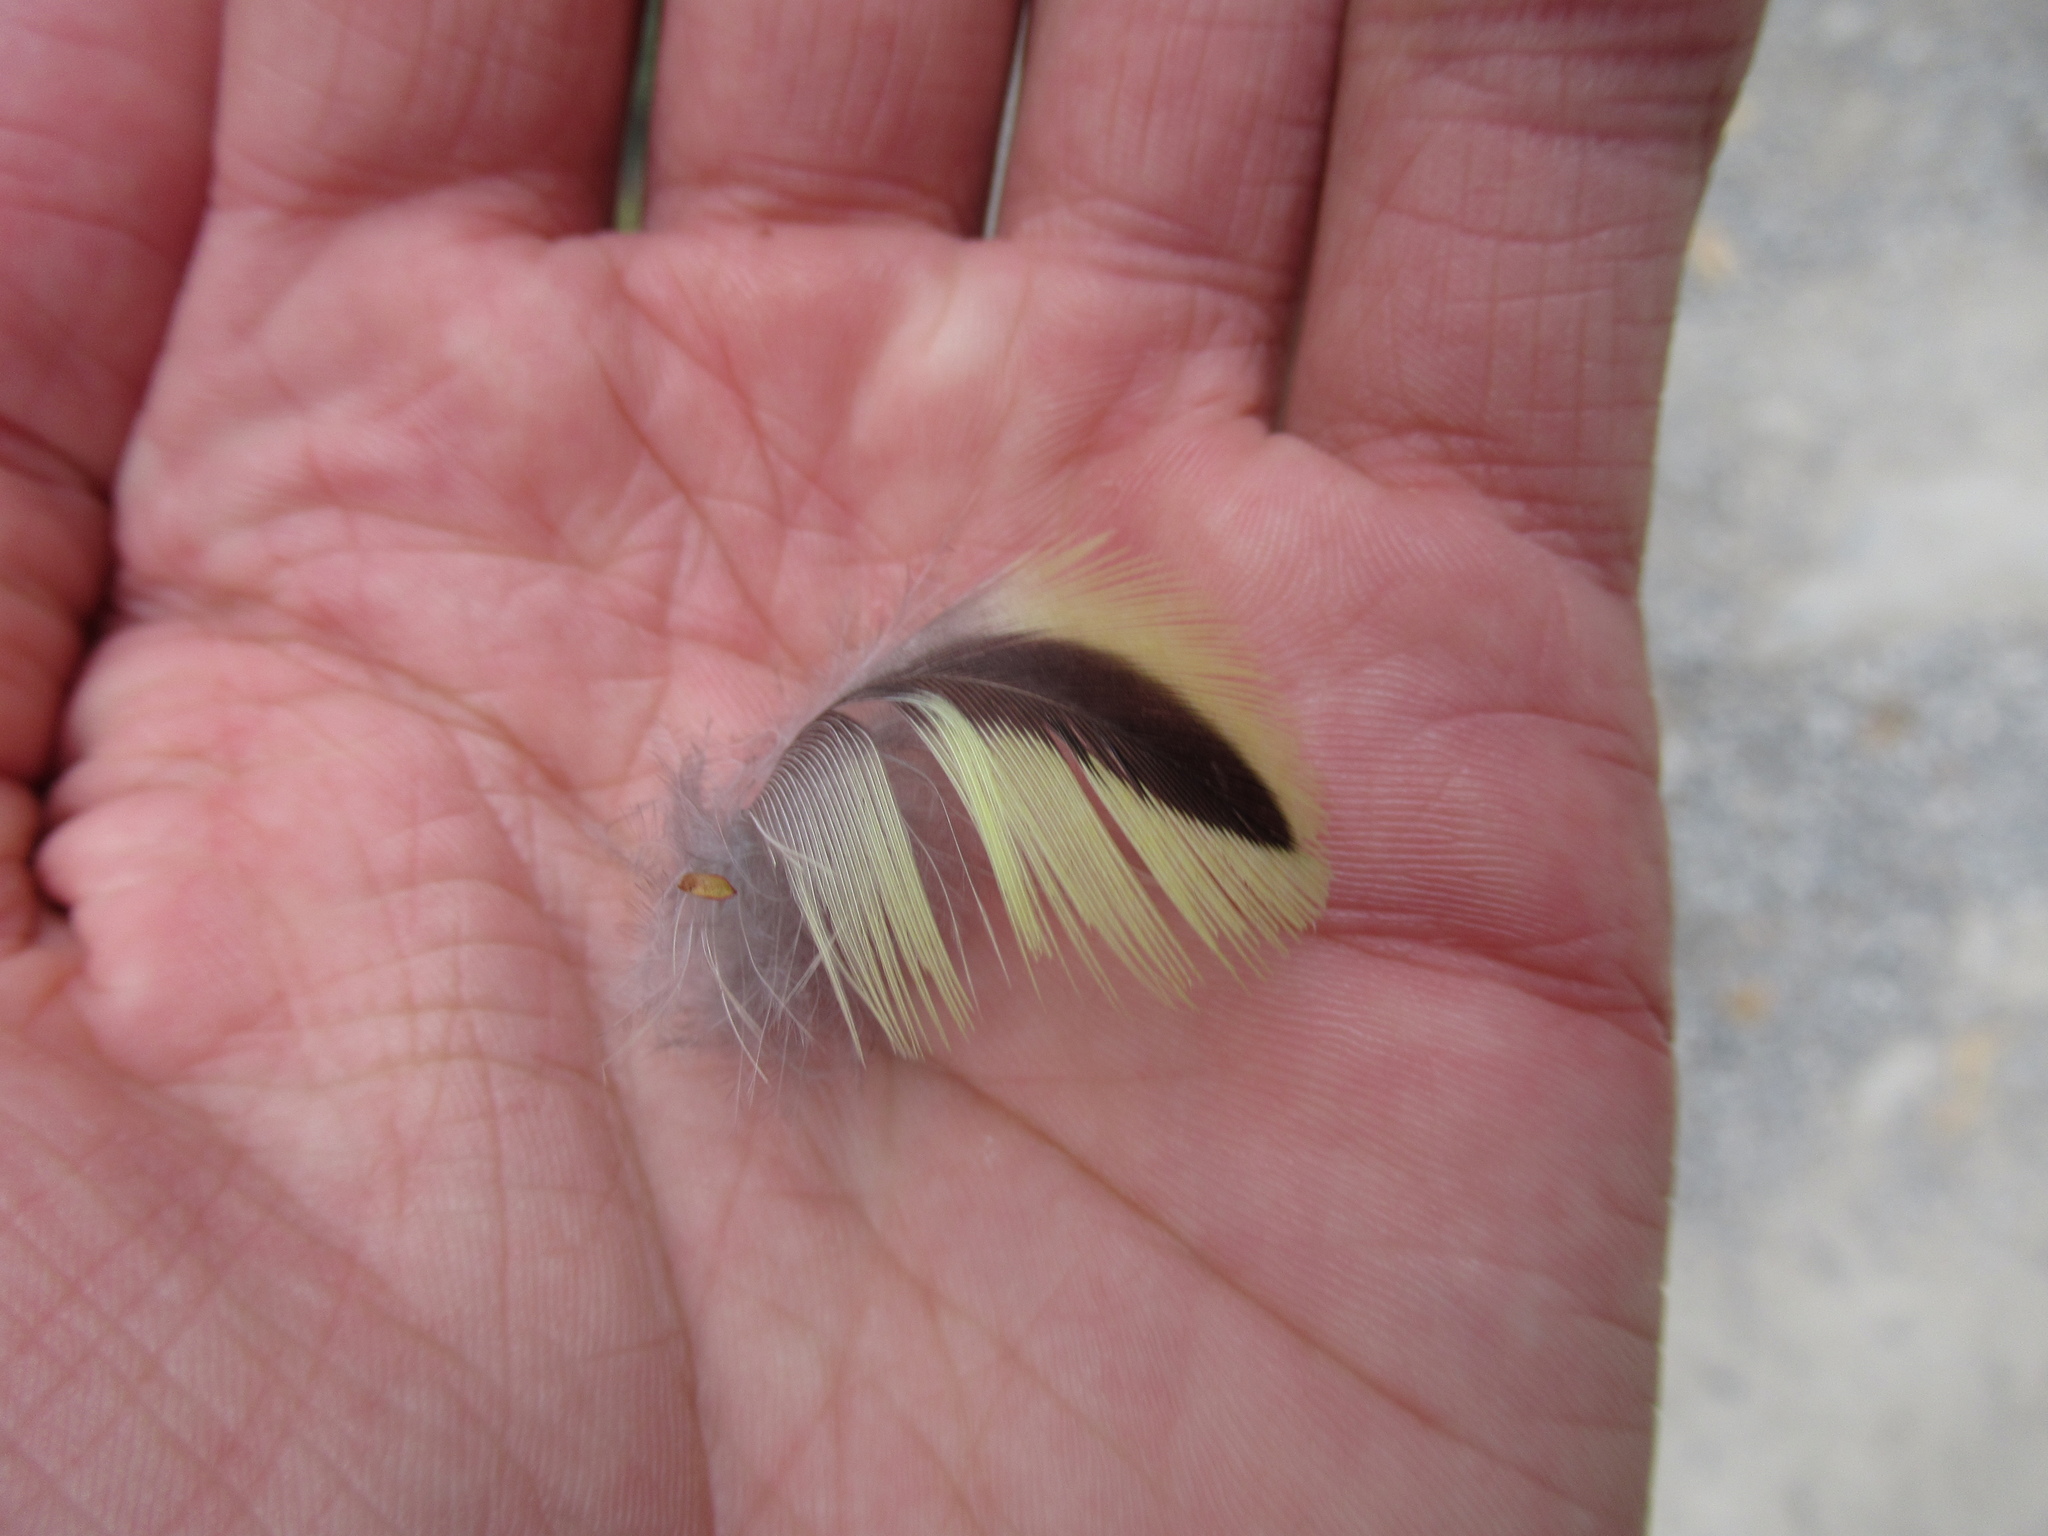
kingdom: Animalia
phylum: Chordata
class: Aves
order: Psittaciformes
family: Psittacidae
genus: Platycercus
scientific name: Platycercus eximius
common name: Eastern rosella
